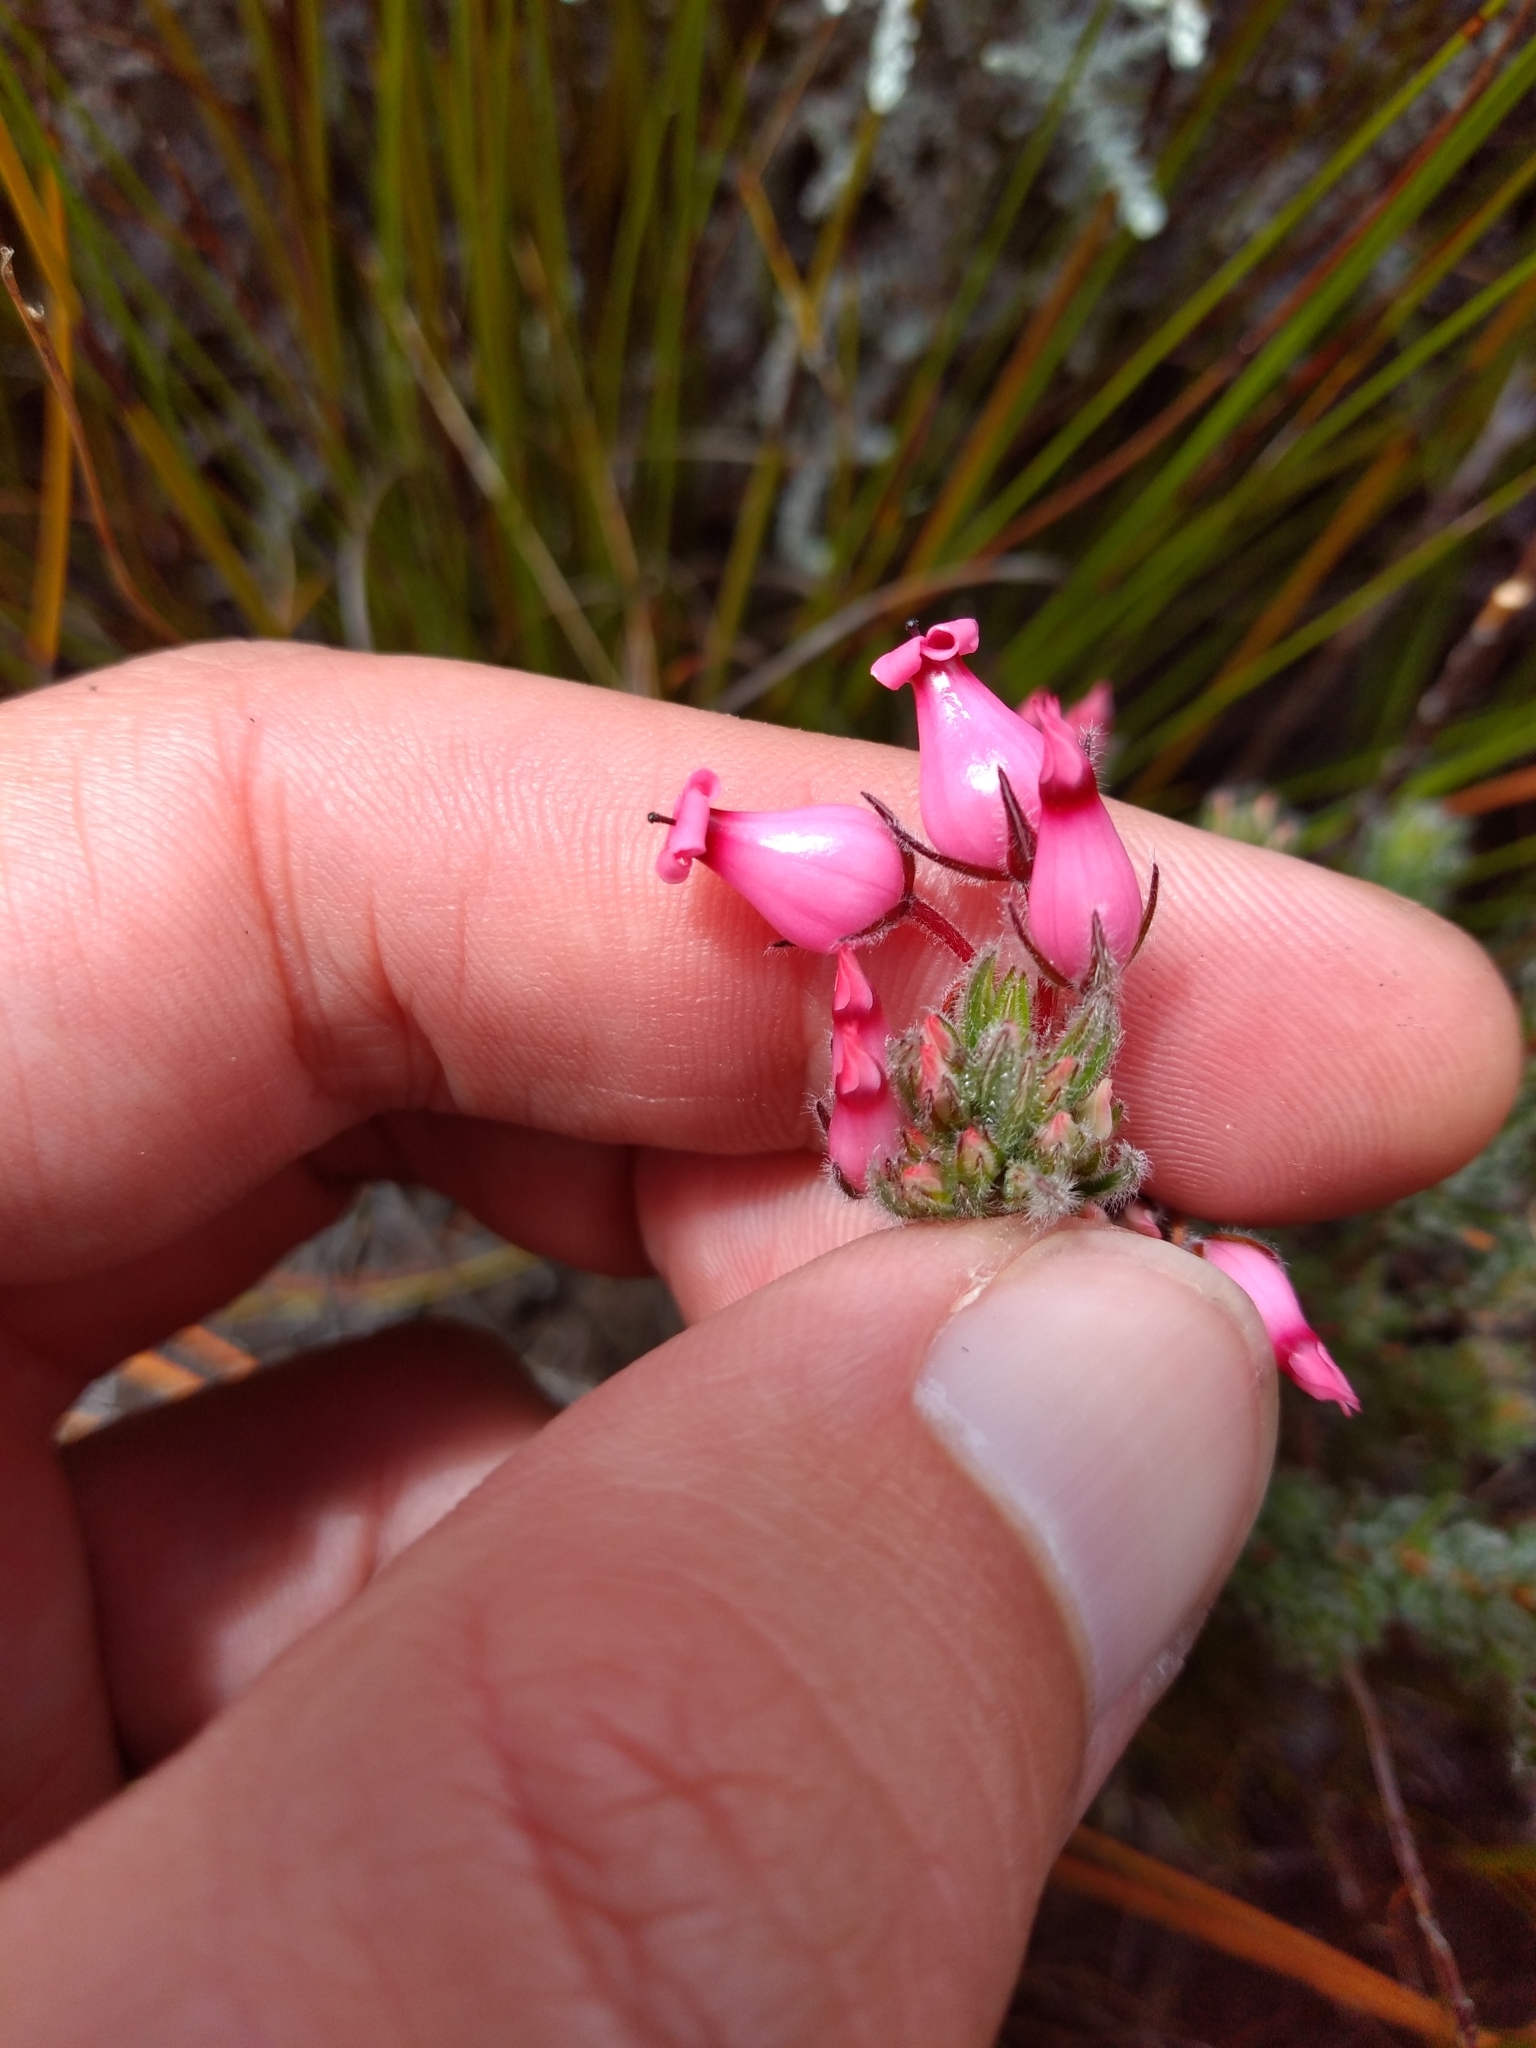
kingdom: Plantae
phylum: Tracheophyta
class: Magnoliopsida
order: Ericales
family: Ericaceae
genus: Erica
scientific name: Erica
